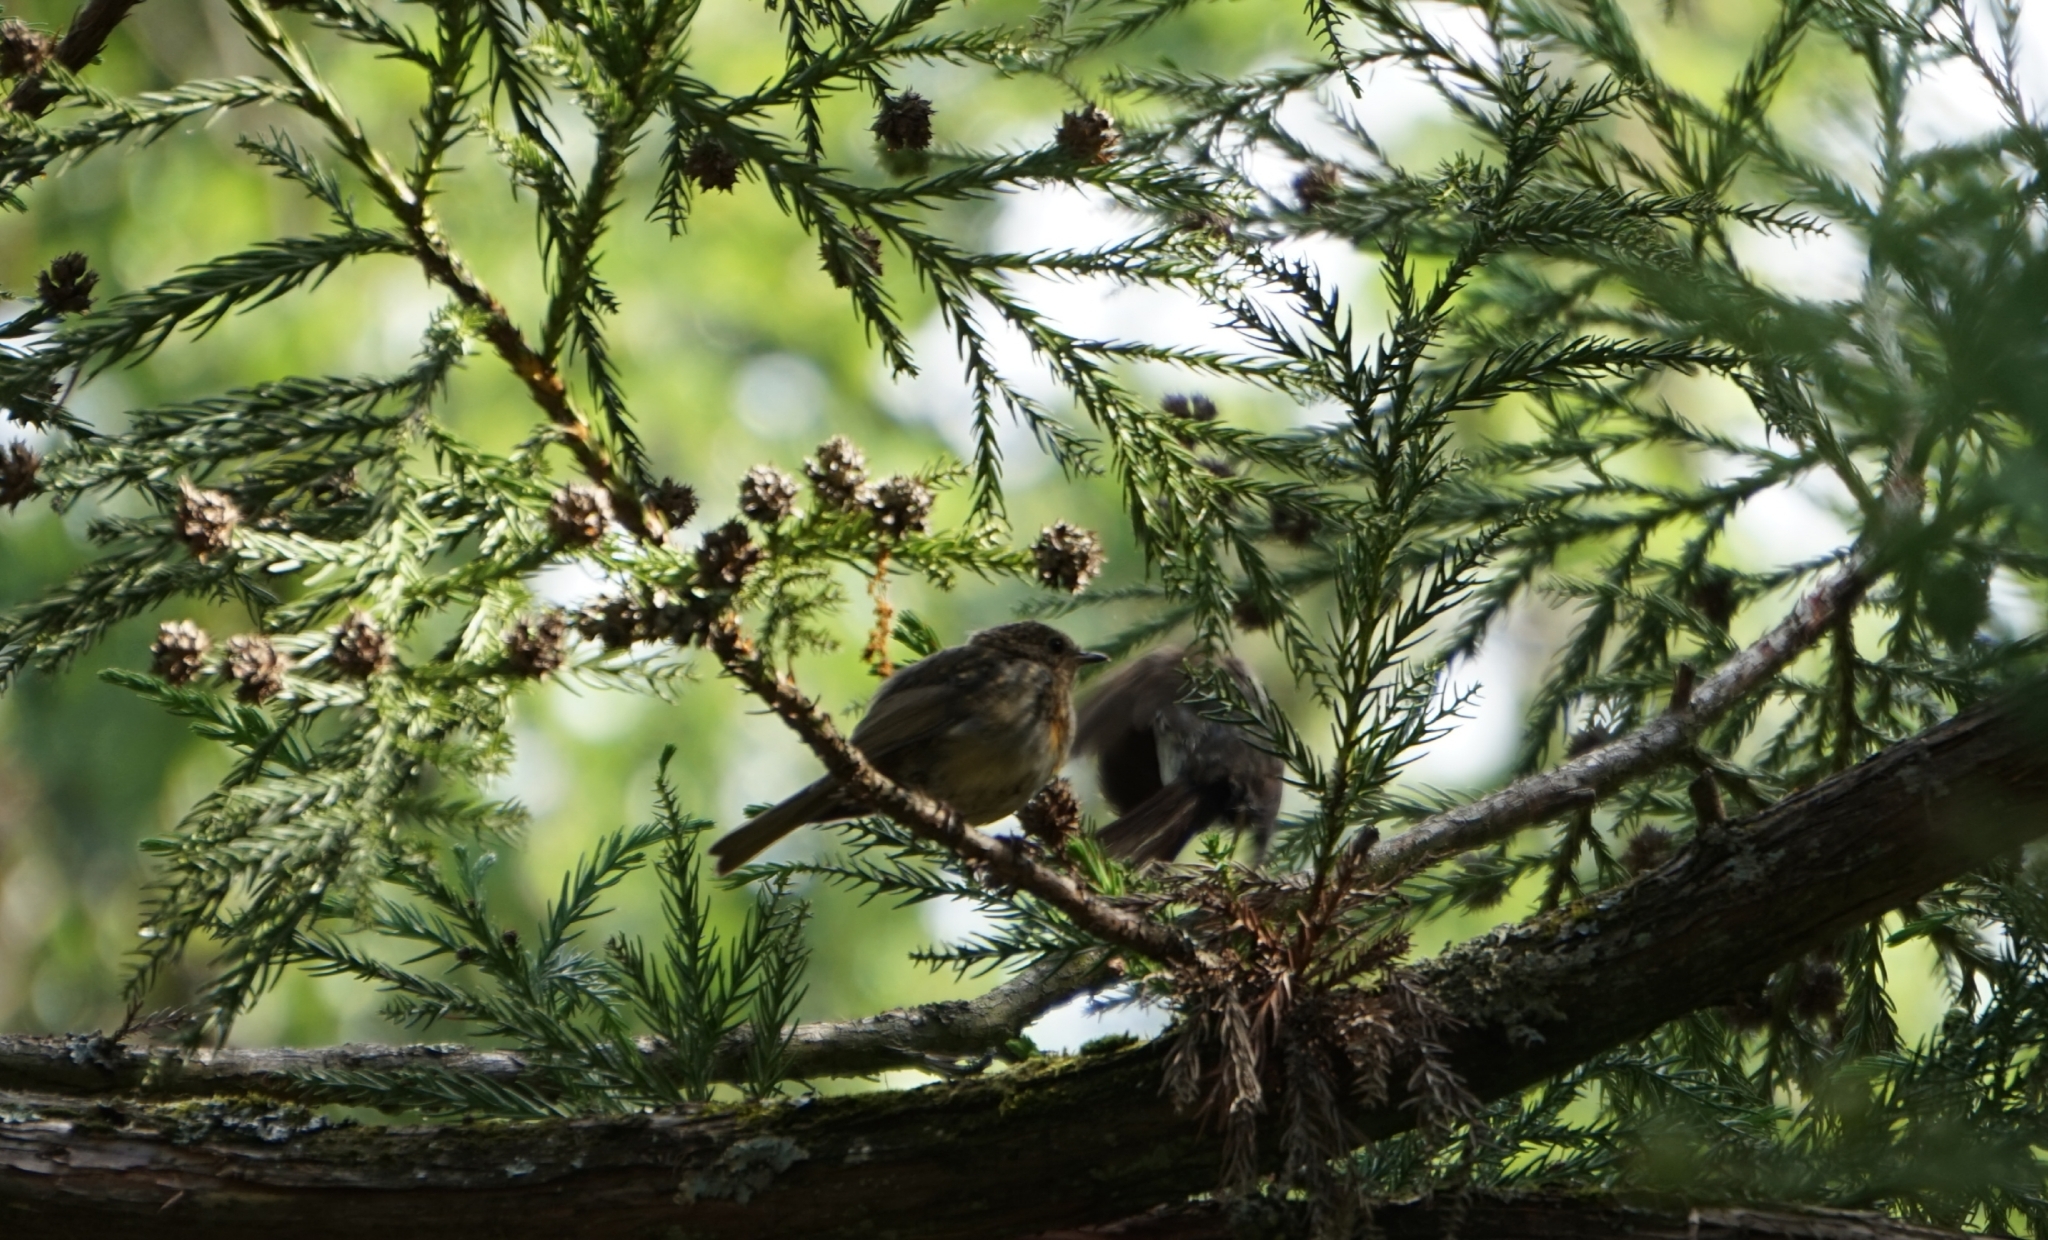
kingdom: Animalia
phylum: Chordata
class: Aves
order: Passeriformes
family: Muscicapidae
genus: Erithacus
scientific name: Erithacus rubecula
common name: European robin
